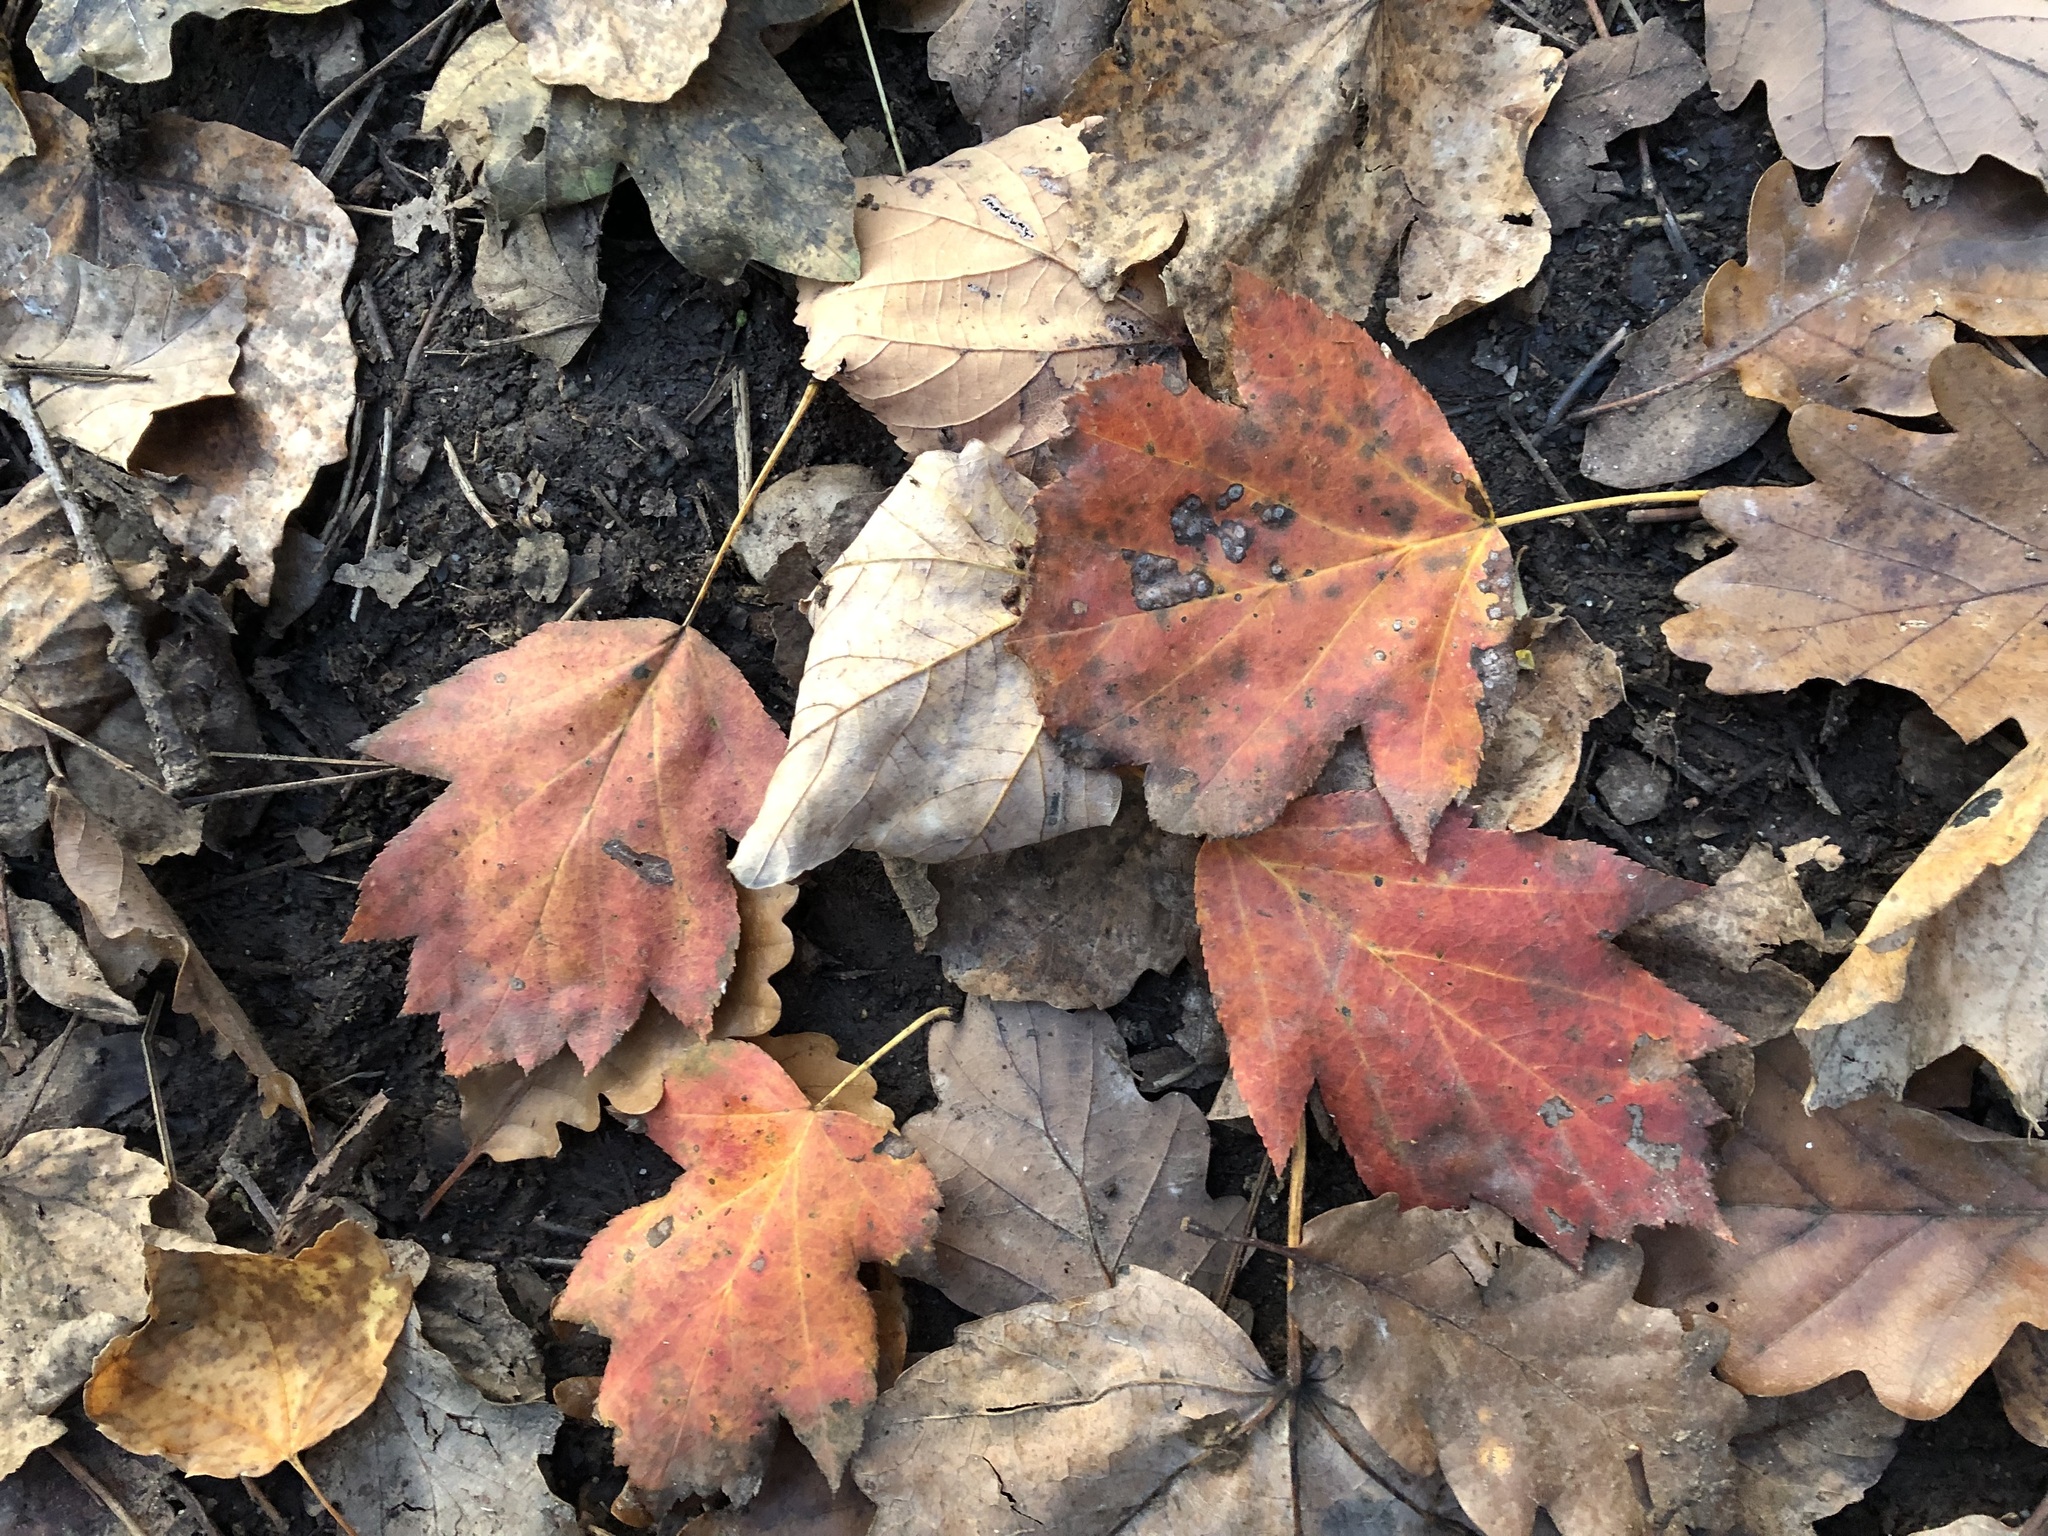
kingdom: Plantae
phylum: Tracheophyta
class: Magnoliopsida
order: Rosales
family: Rosaceae
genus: Torminalis
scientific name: Torminalis glaberrima
